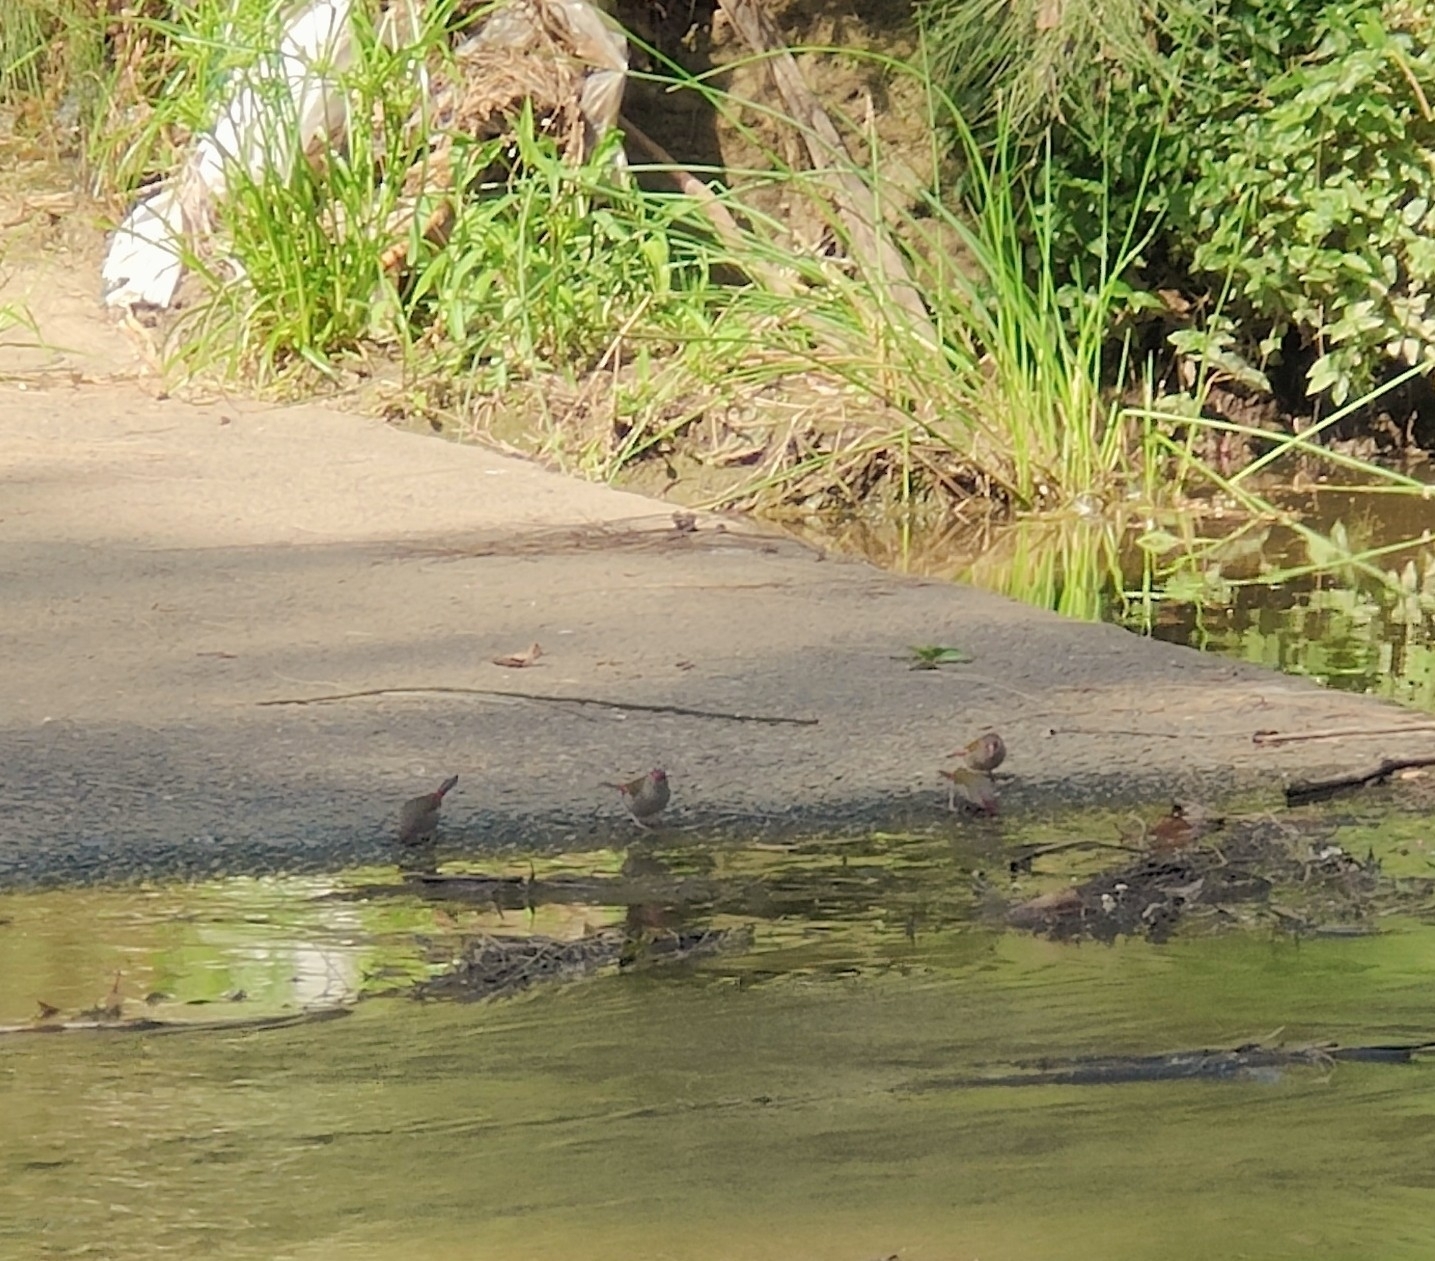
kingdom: Animalia
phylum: Chordata
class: Aves
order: Passeriformes
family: Estrildidae
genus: Neochmia
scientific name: Neochmia temporalis
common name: Red-browed finch
